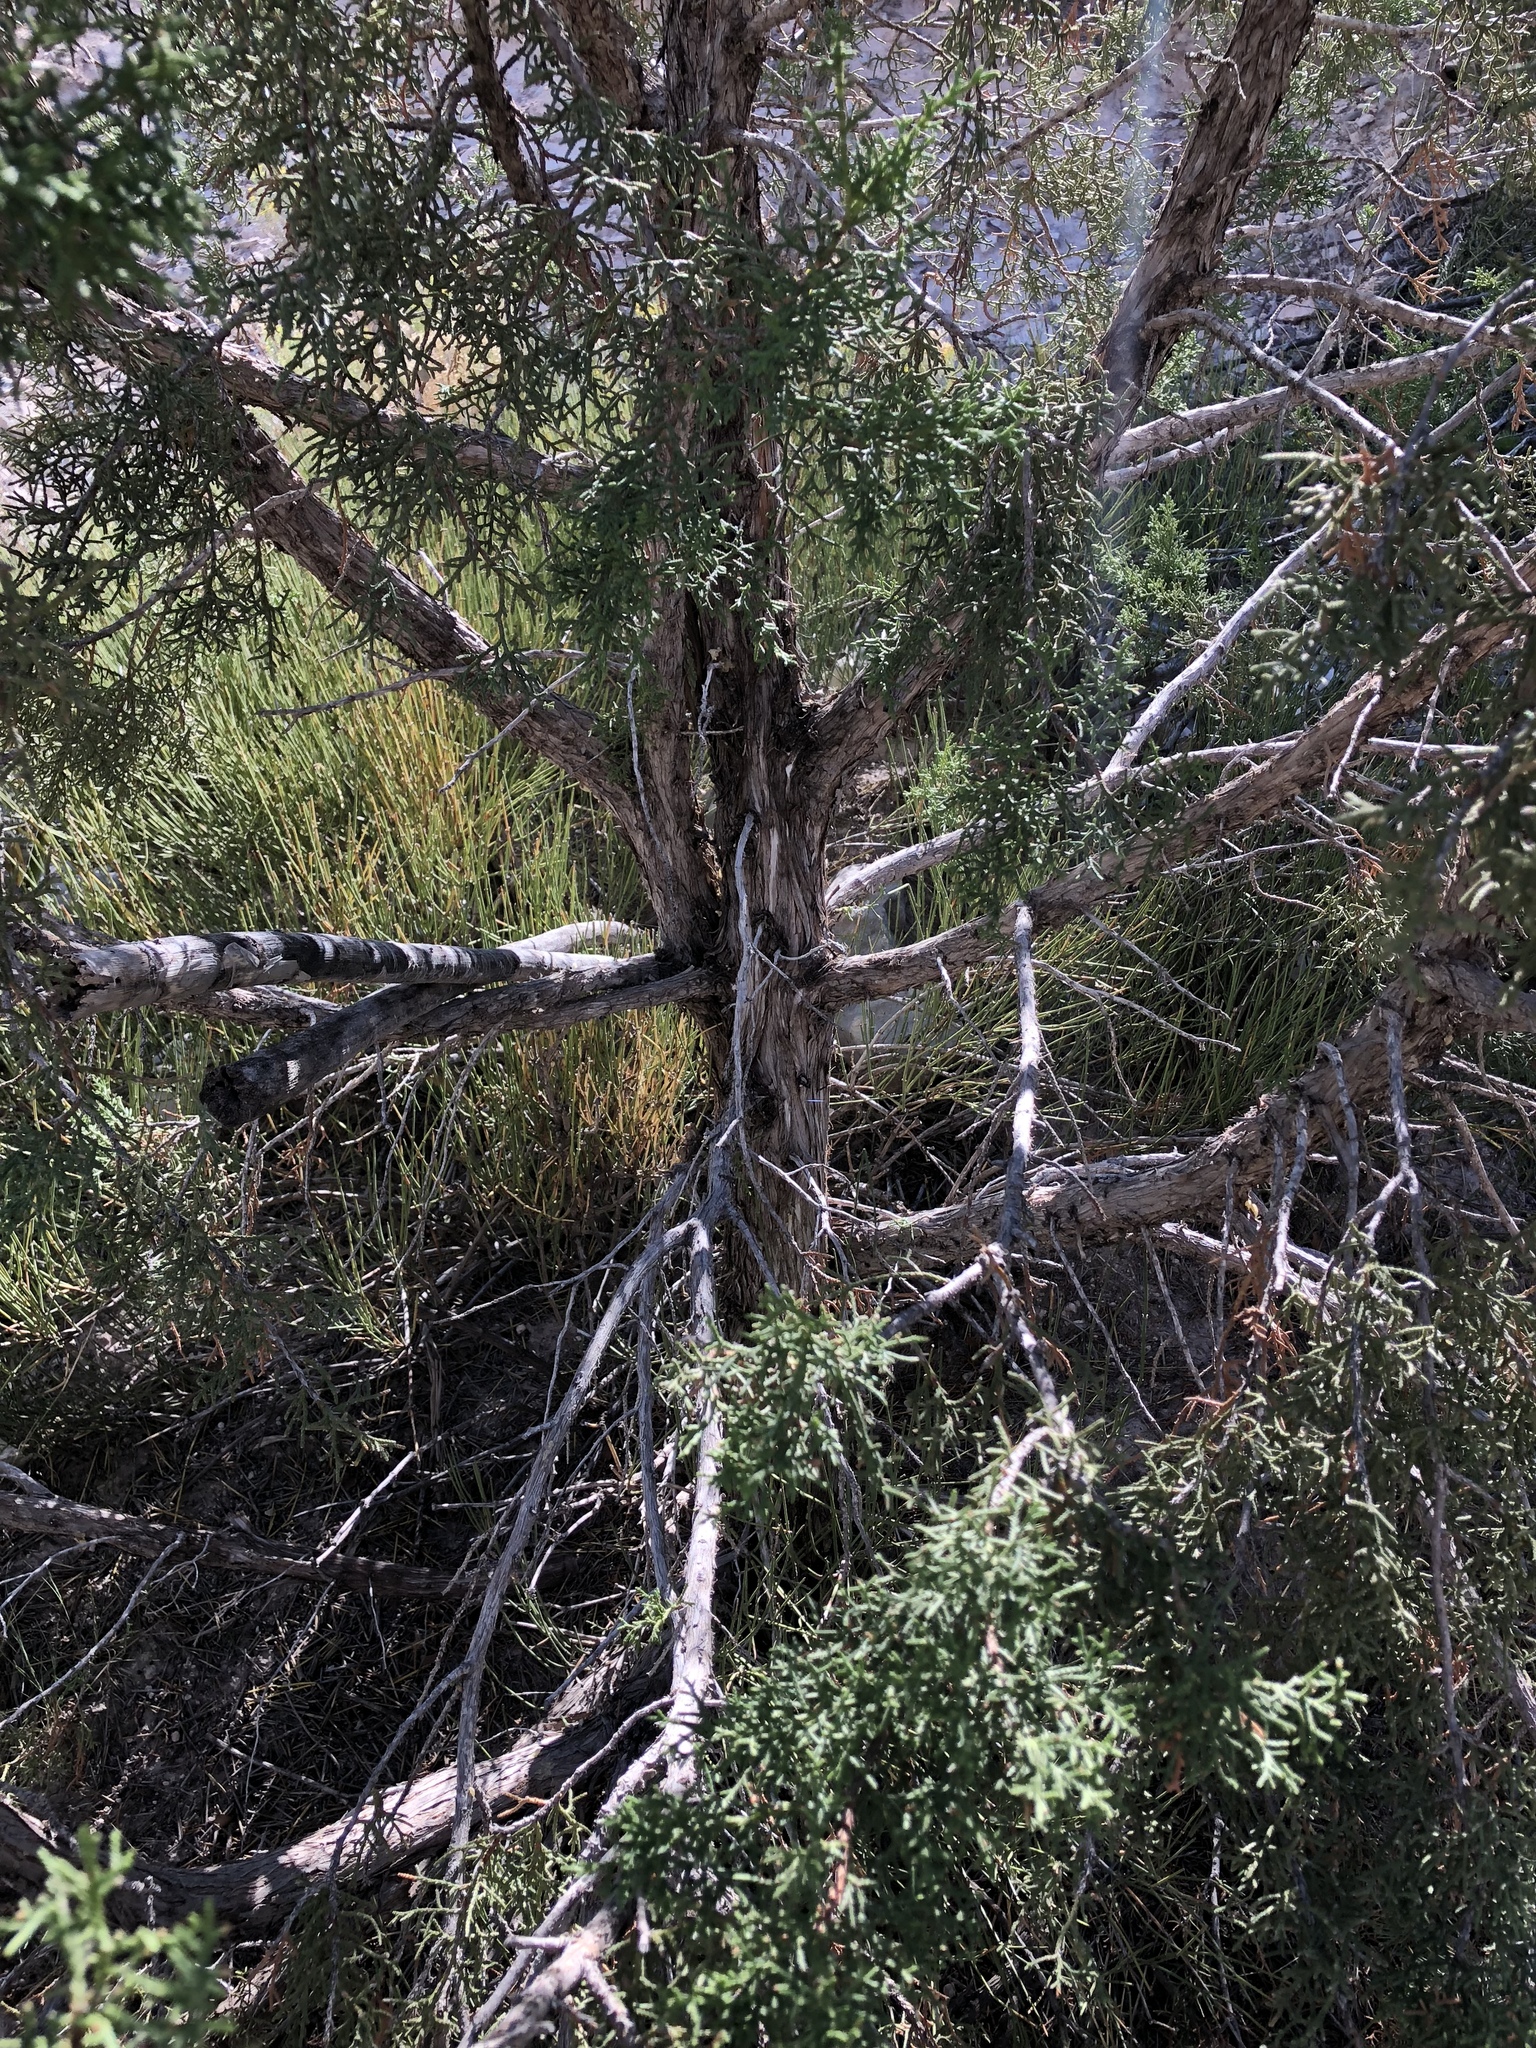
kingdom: Plantae
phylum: Tracheophyta
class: Pinopsida
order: Pinales
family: Cupressaceae
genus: Juniperus
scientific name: Juniperus monosperma
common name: One-seed juniper
